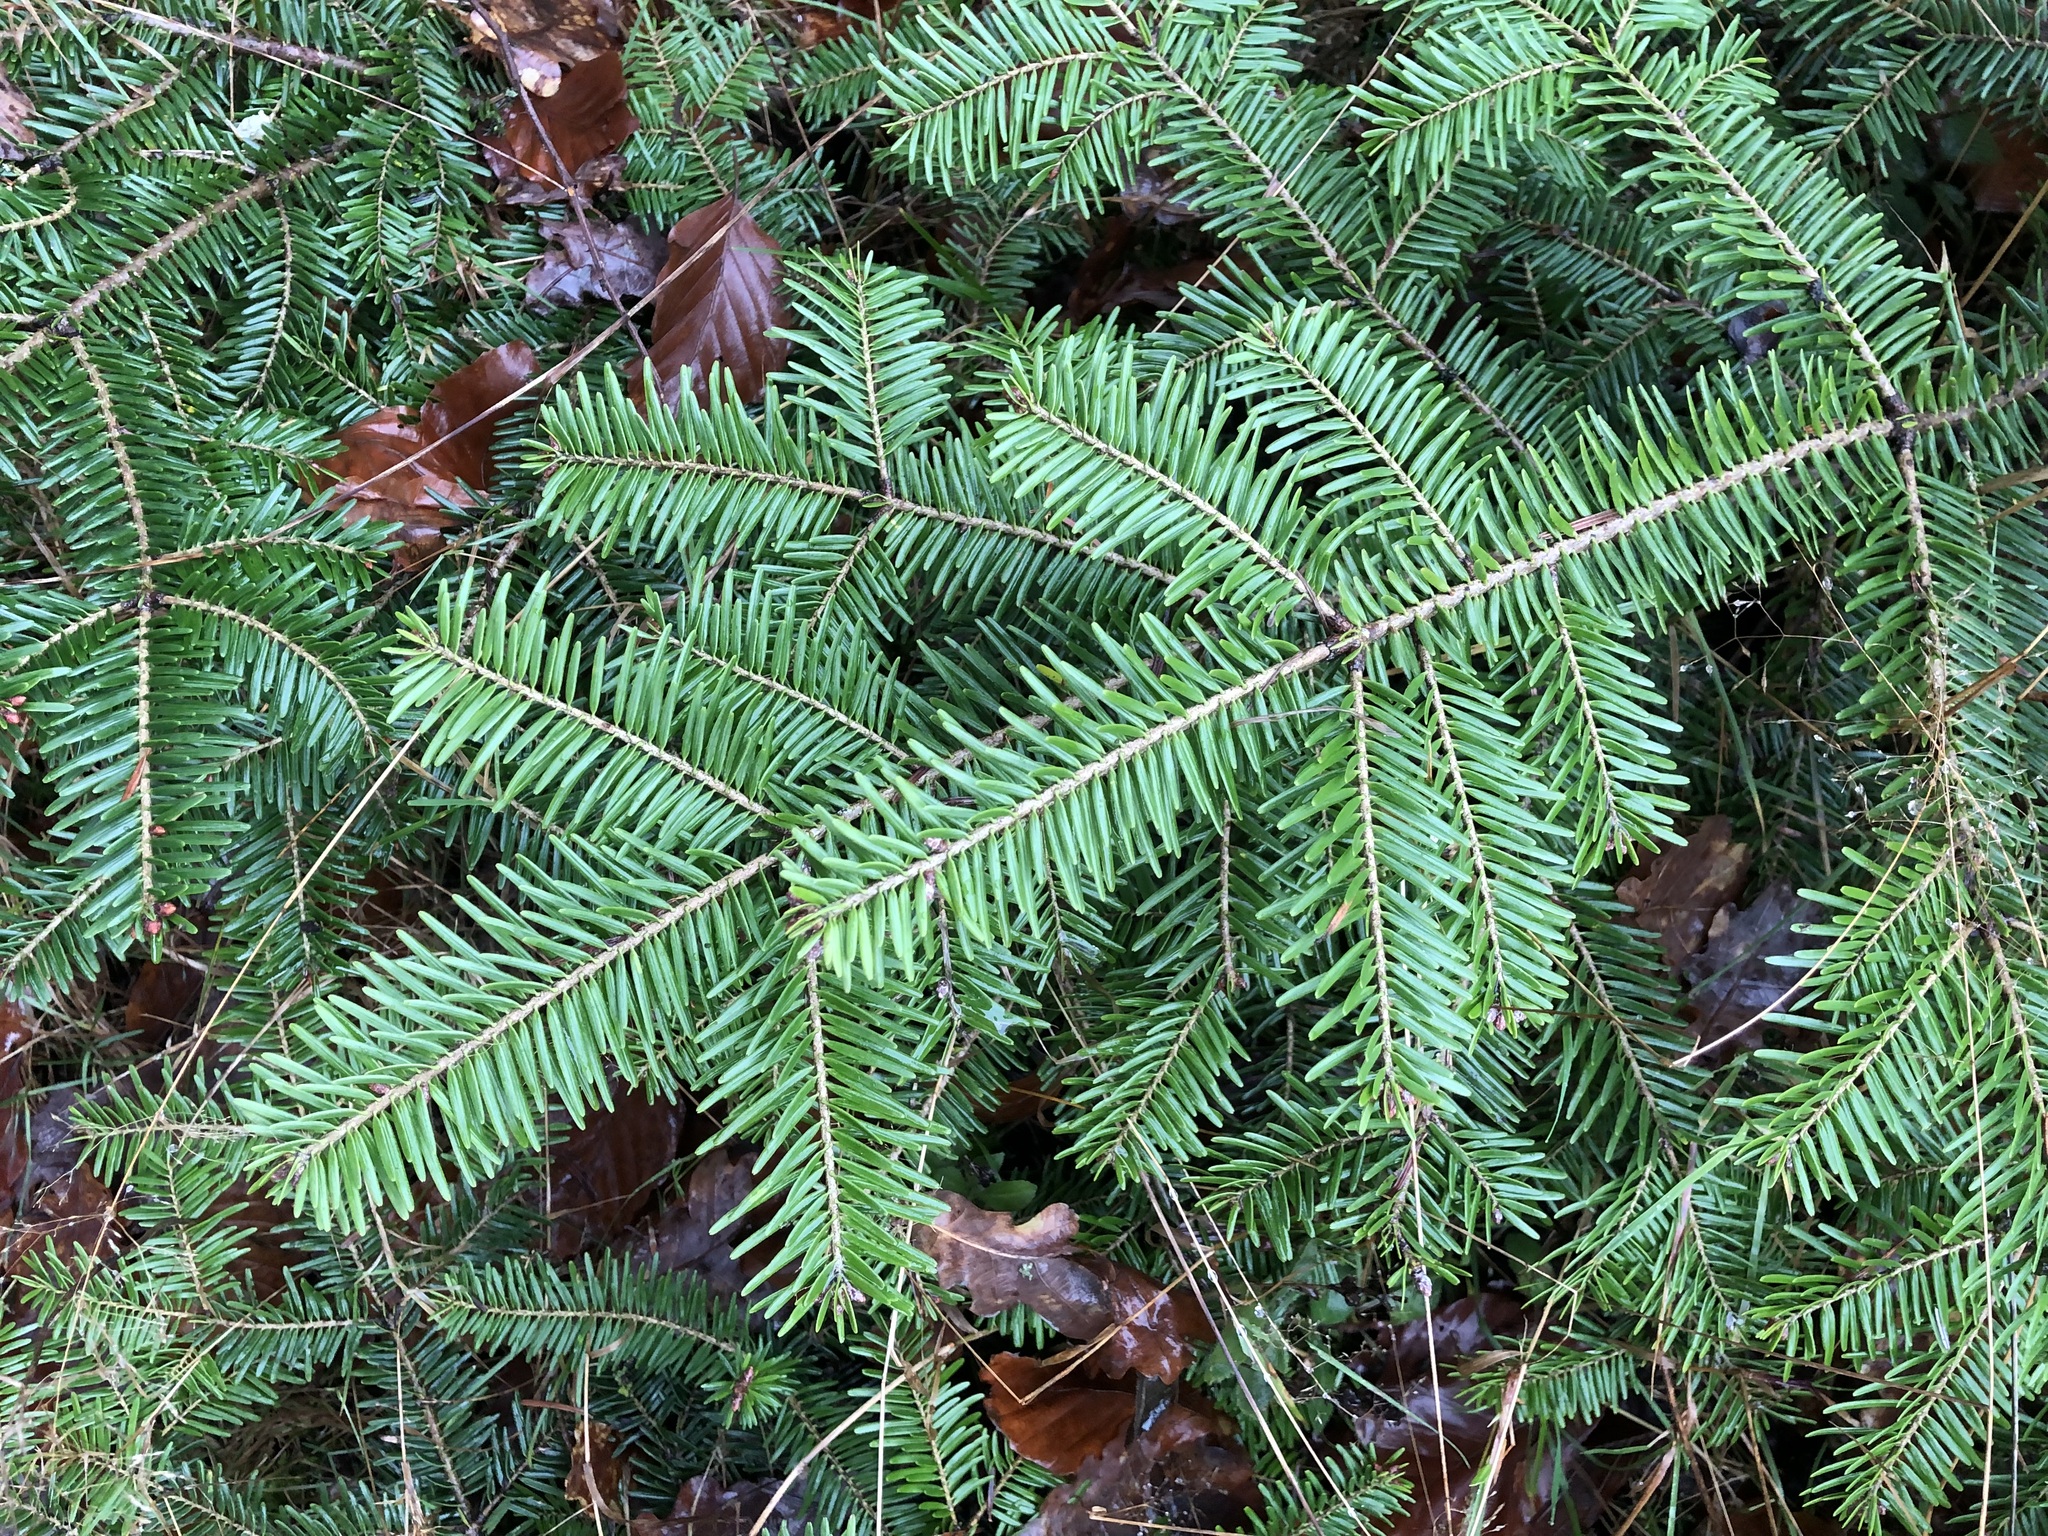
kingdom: Plantae
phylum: Tracheophyta
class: Pinopsida
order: Pinales
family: Pinaceae
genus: Abies
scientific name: Abies alba
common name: Silver fir
